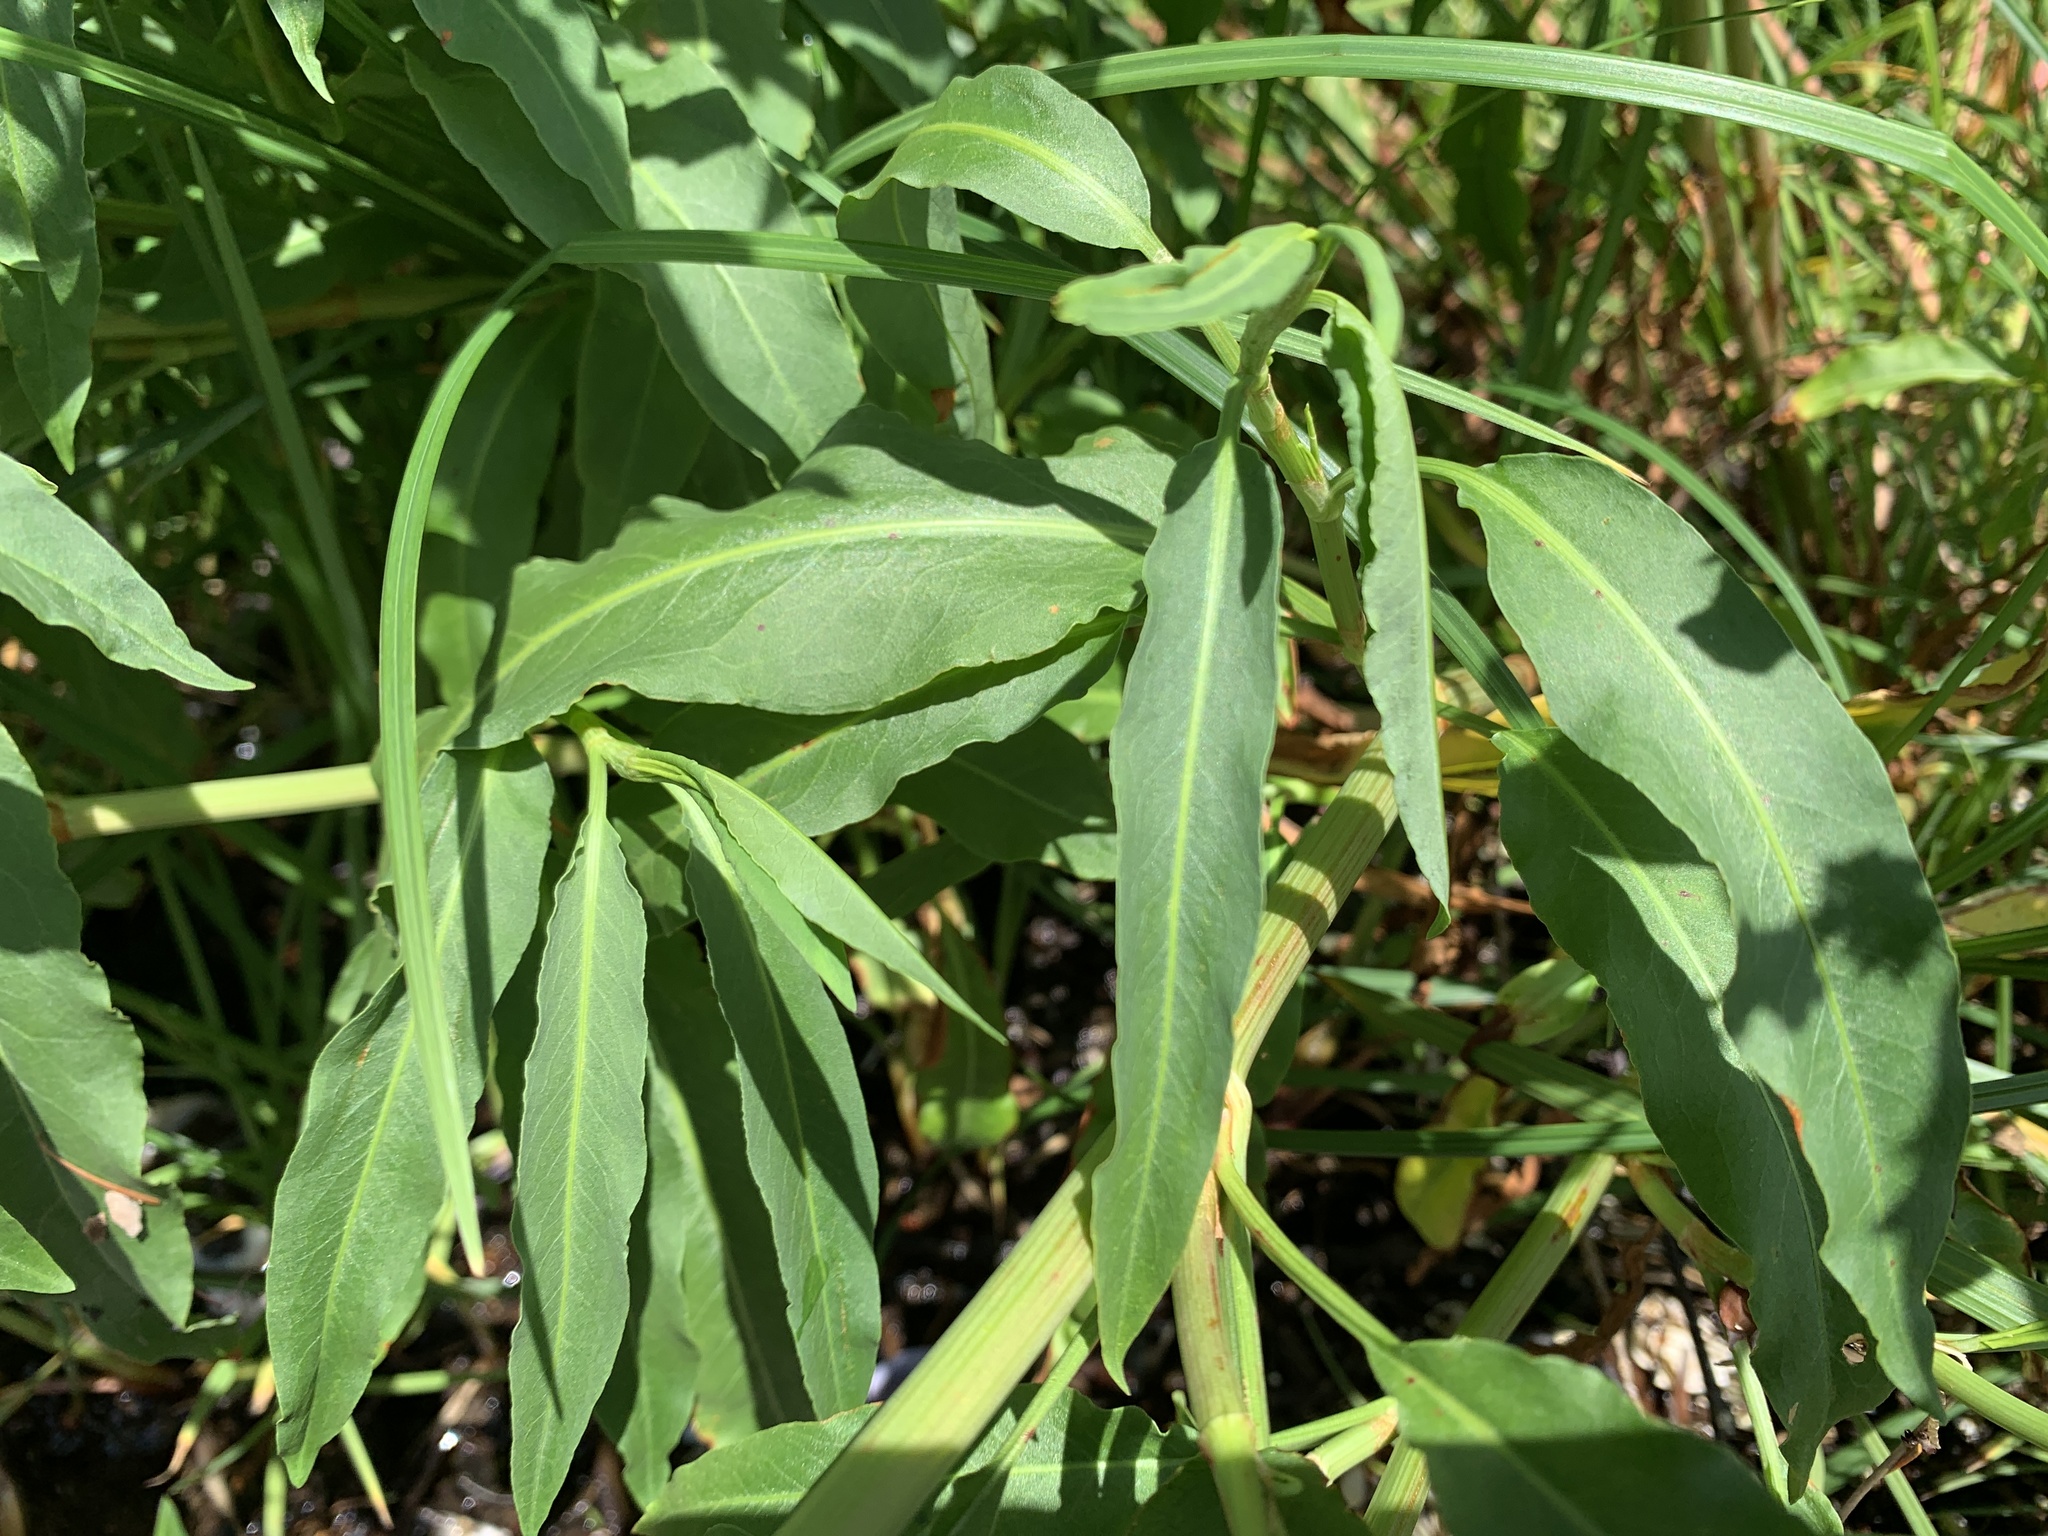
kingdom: Plantae
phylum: Tracheophyta
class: Magnoliopsida
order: Caryophyllales
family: Polygonaceae
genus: Rumex
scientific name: Rumex transitorius
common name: Pacific willow dock
